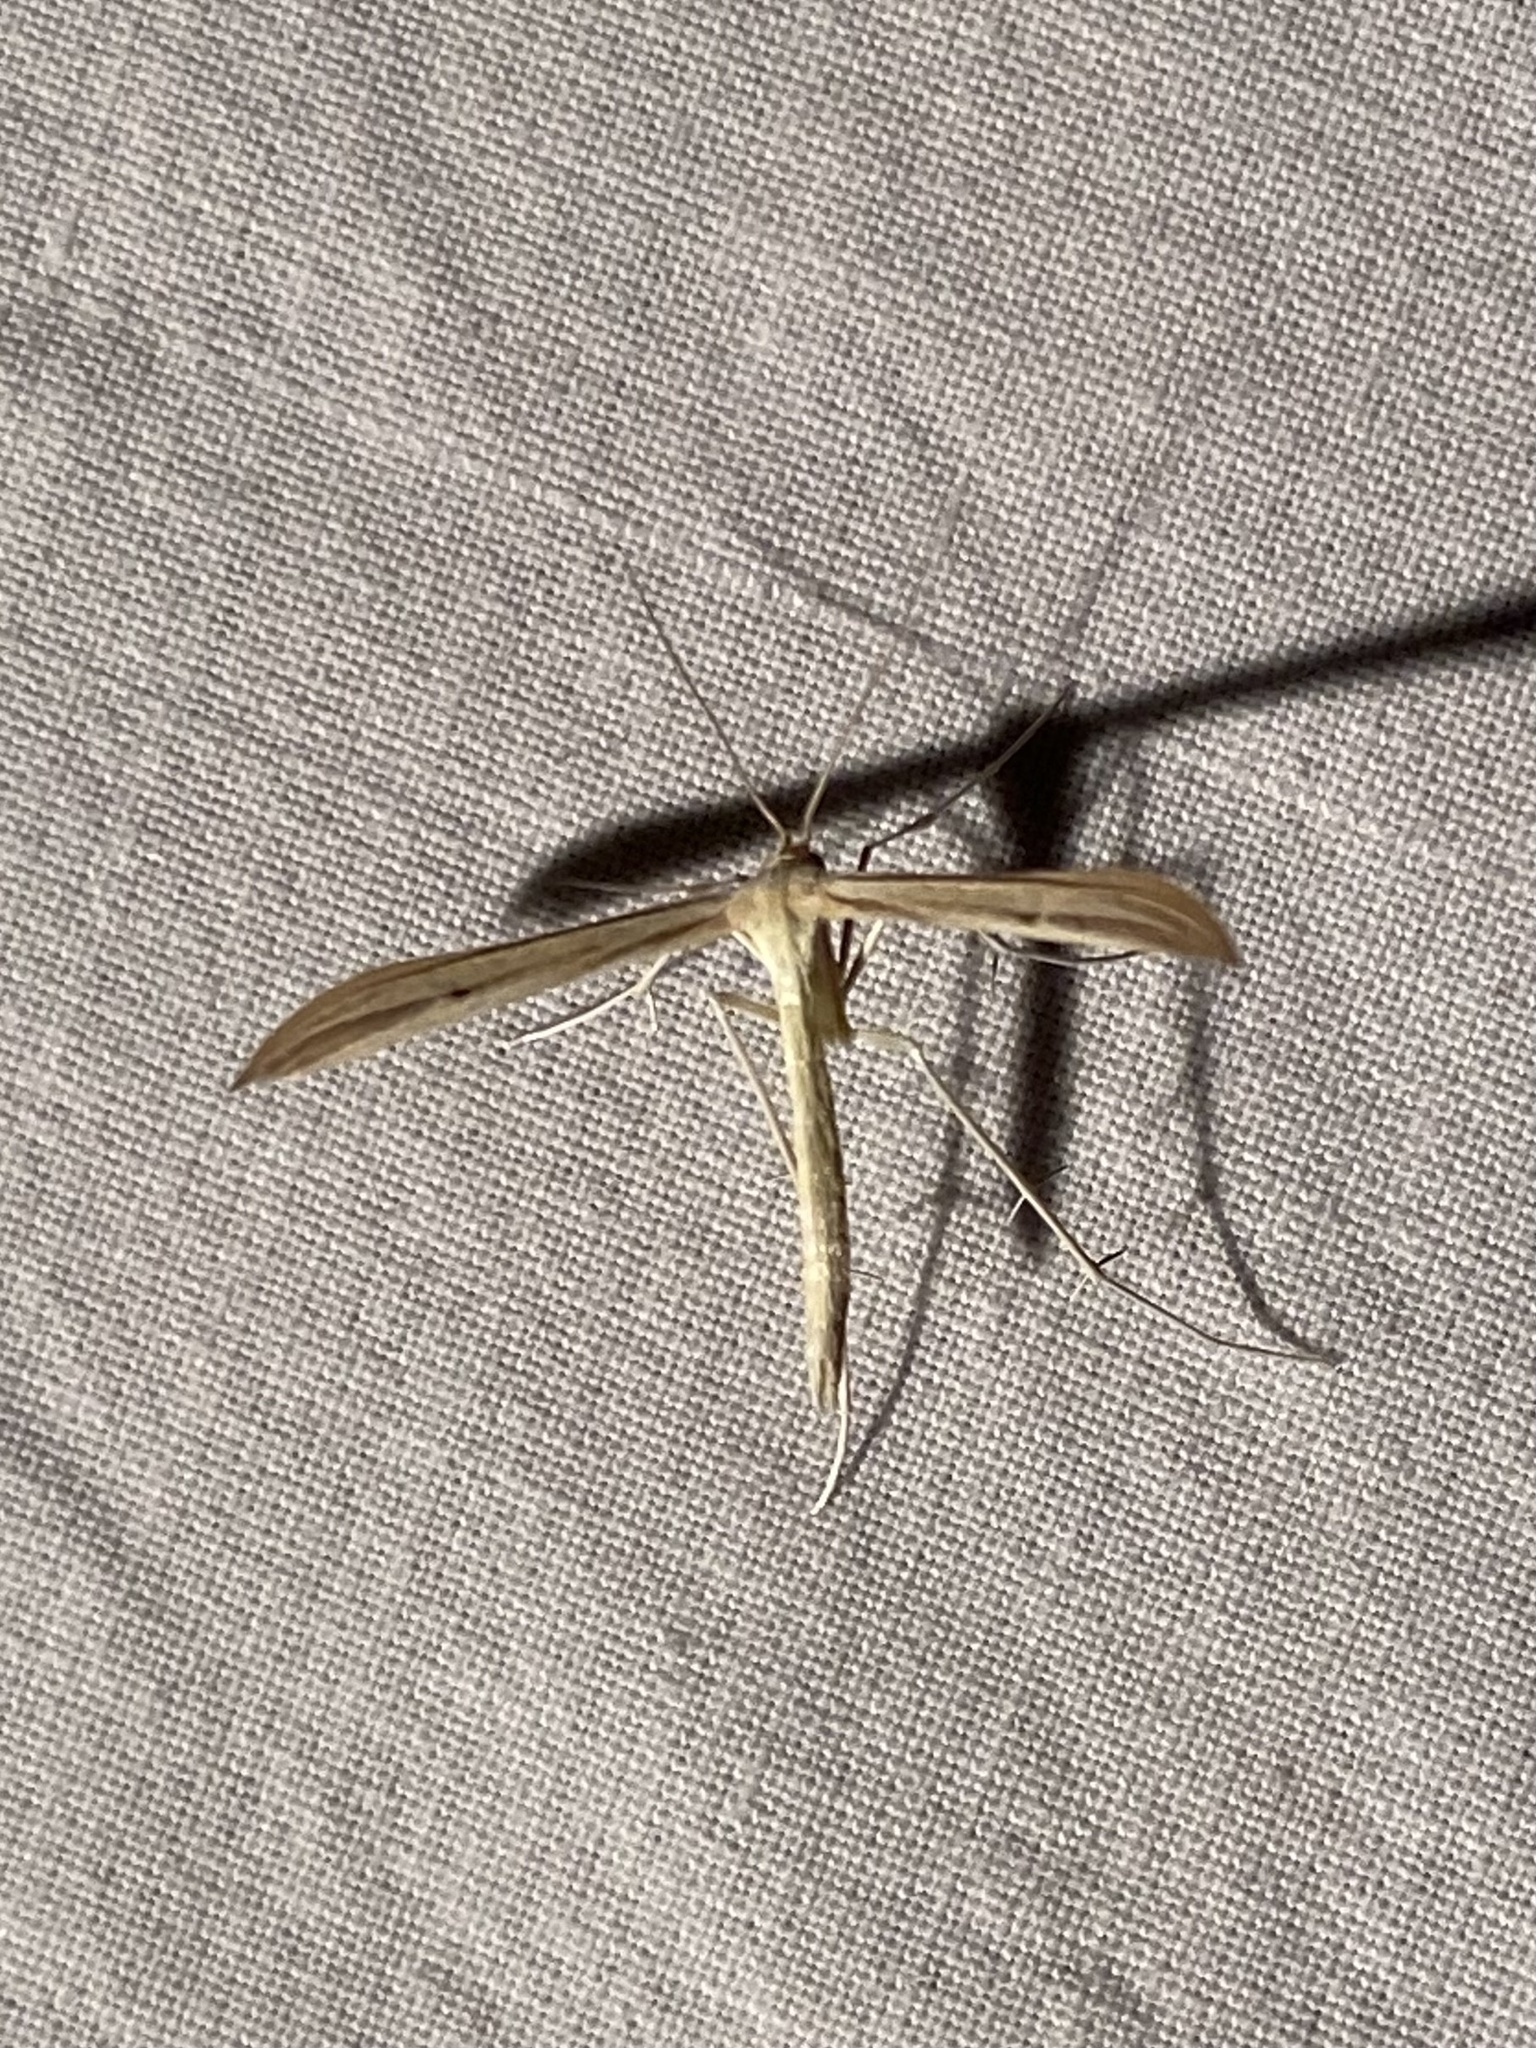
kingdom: Animalia
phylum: Arthropoda
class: Insecta
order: Lepidoptera
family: Pterophoridae
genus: Hellinsia
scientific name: Hellinsia paleaceus
